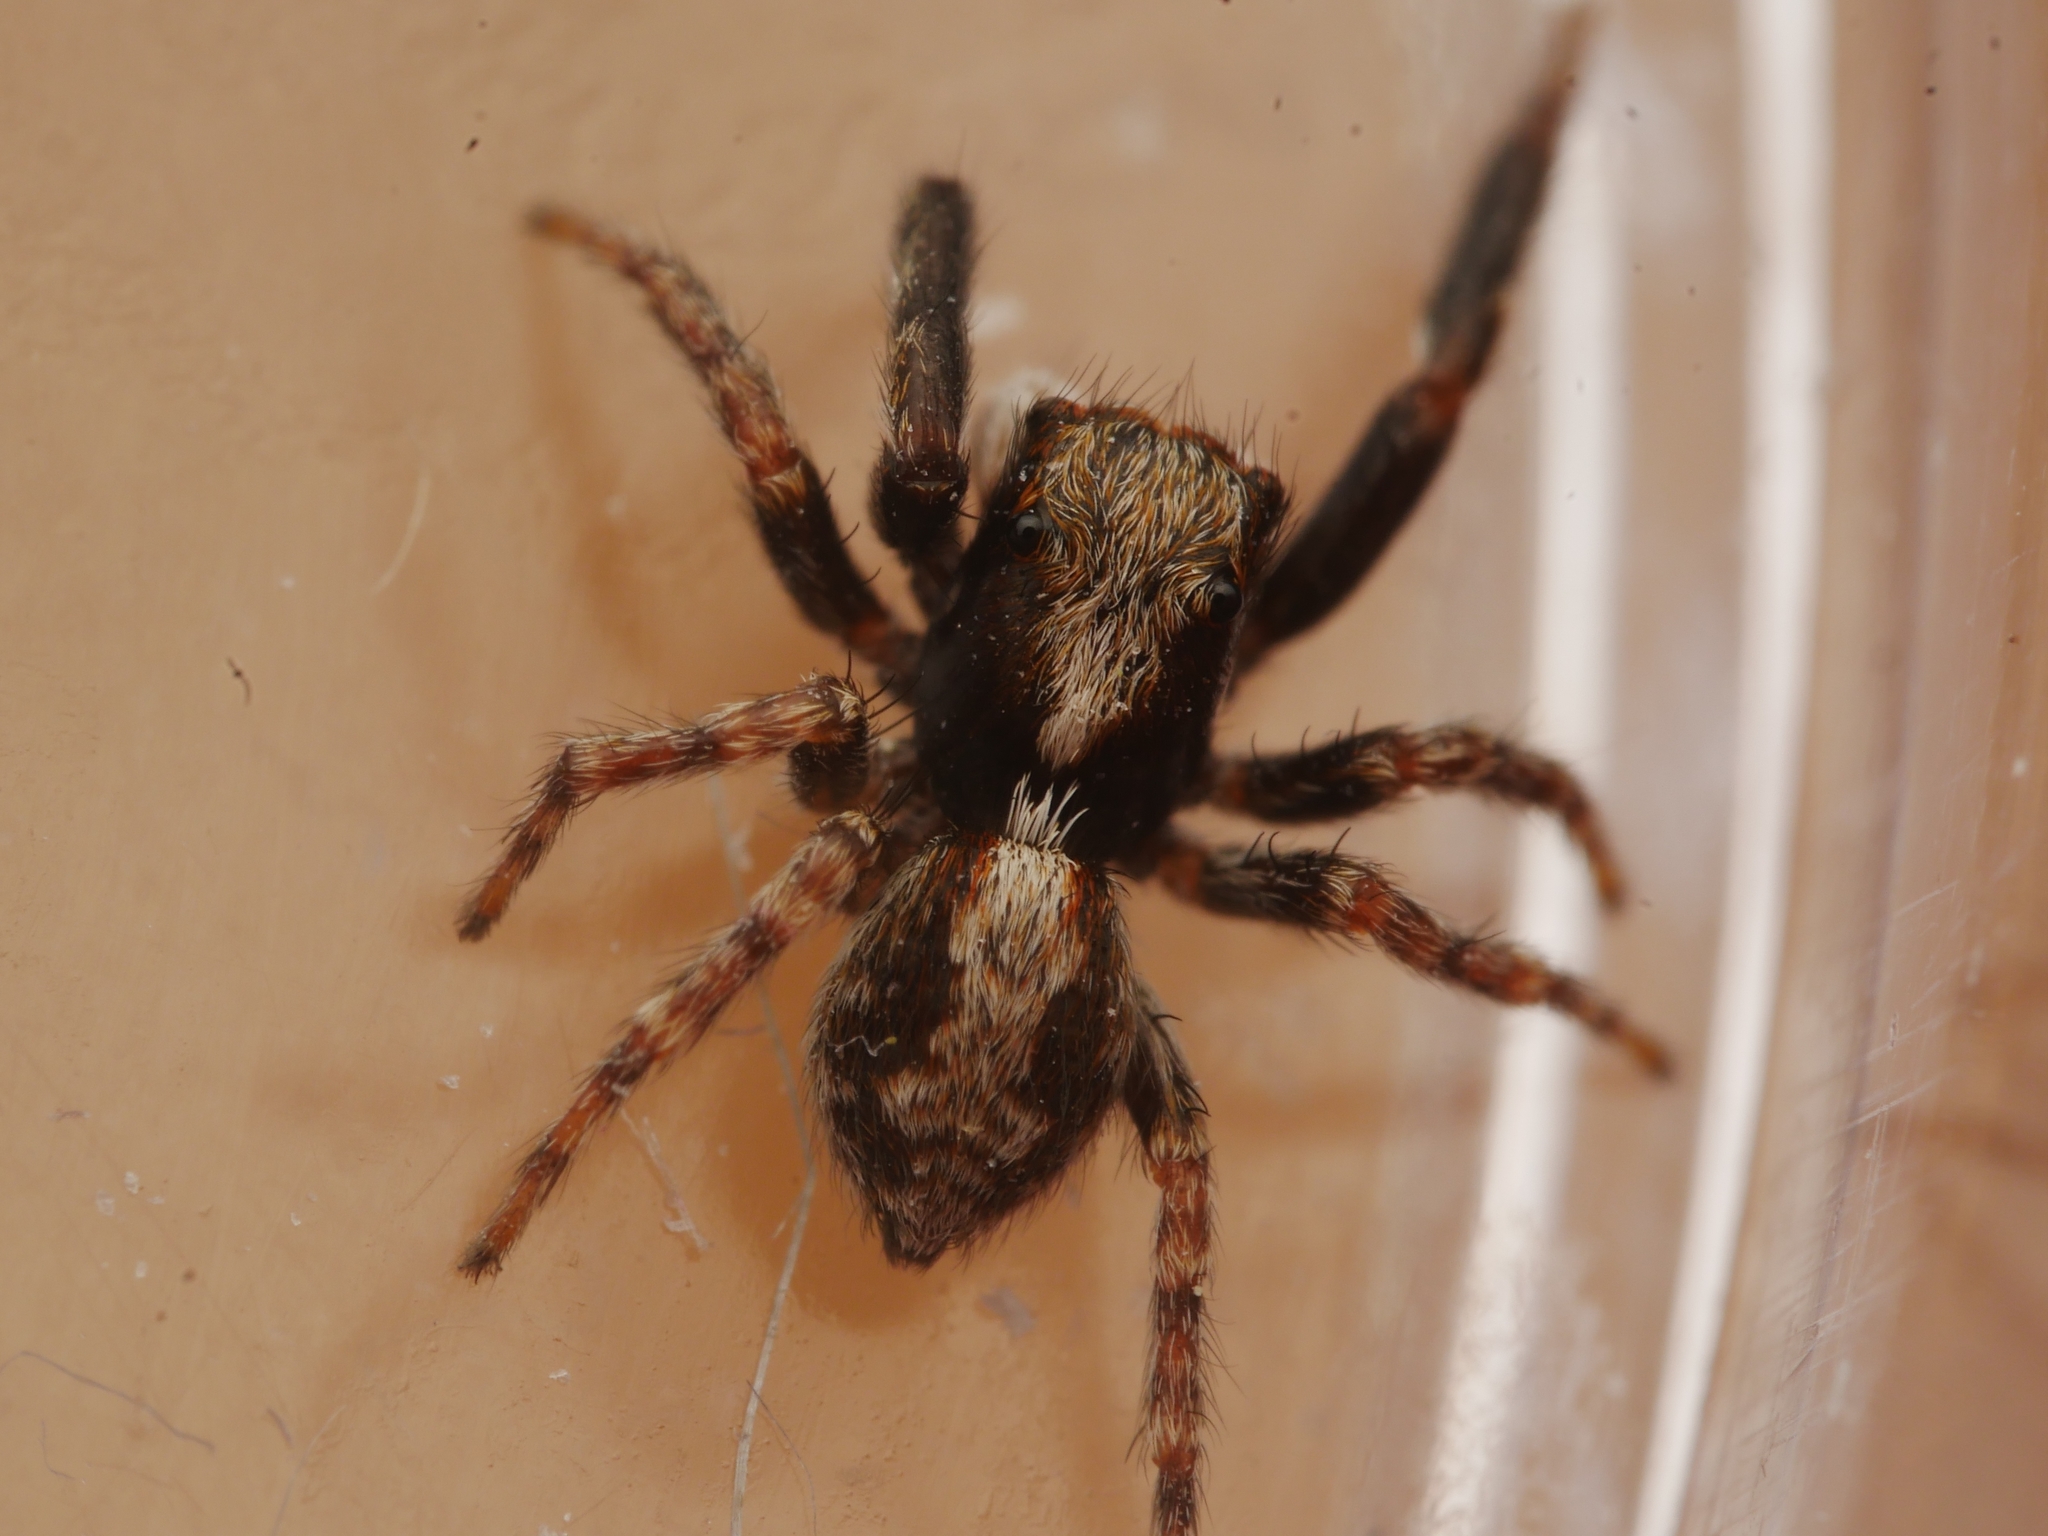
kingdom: Animalia
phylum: Arthropoda
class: Arachnida
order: Araneae
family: Salticidae
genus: Pseudeuophrys
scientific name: Pseudeuophrys lanigera
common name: Jumping spider
